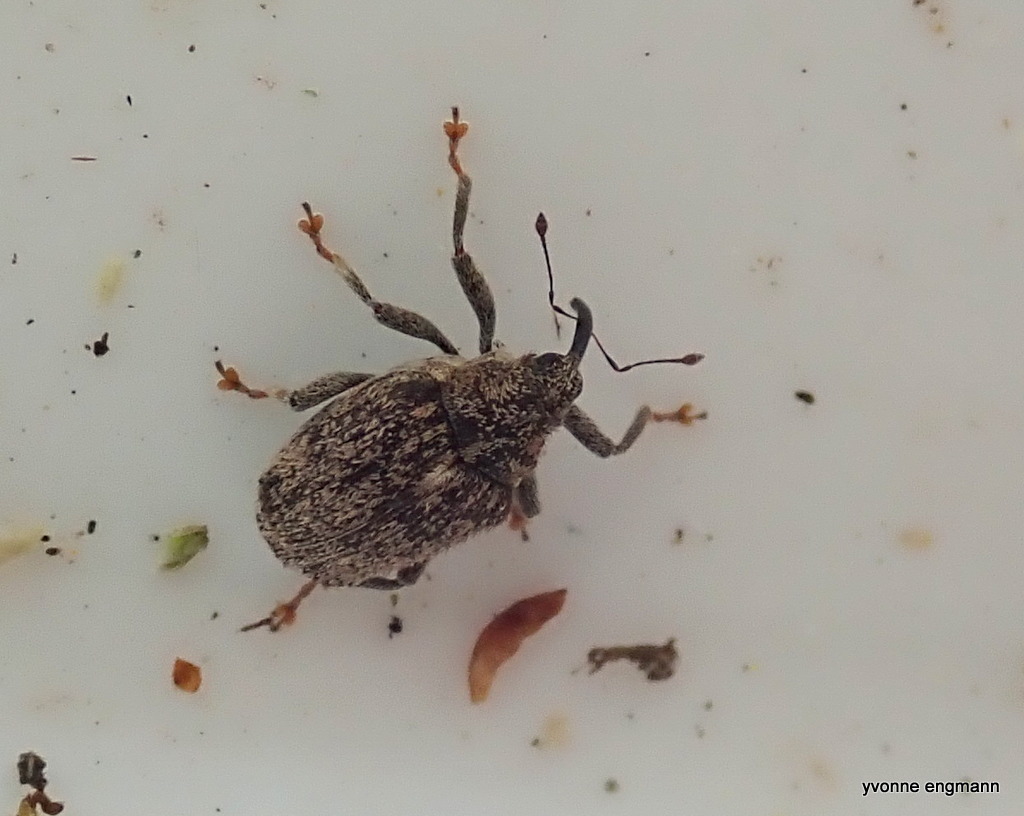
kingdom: Animalia
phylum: Arthropoda
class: Insecta
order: Coleoptera
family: Curculionidae
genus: Ceutorhynchus
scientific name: Ceutorhynchus pallidactylus
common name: Cabbage stem weavil
